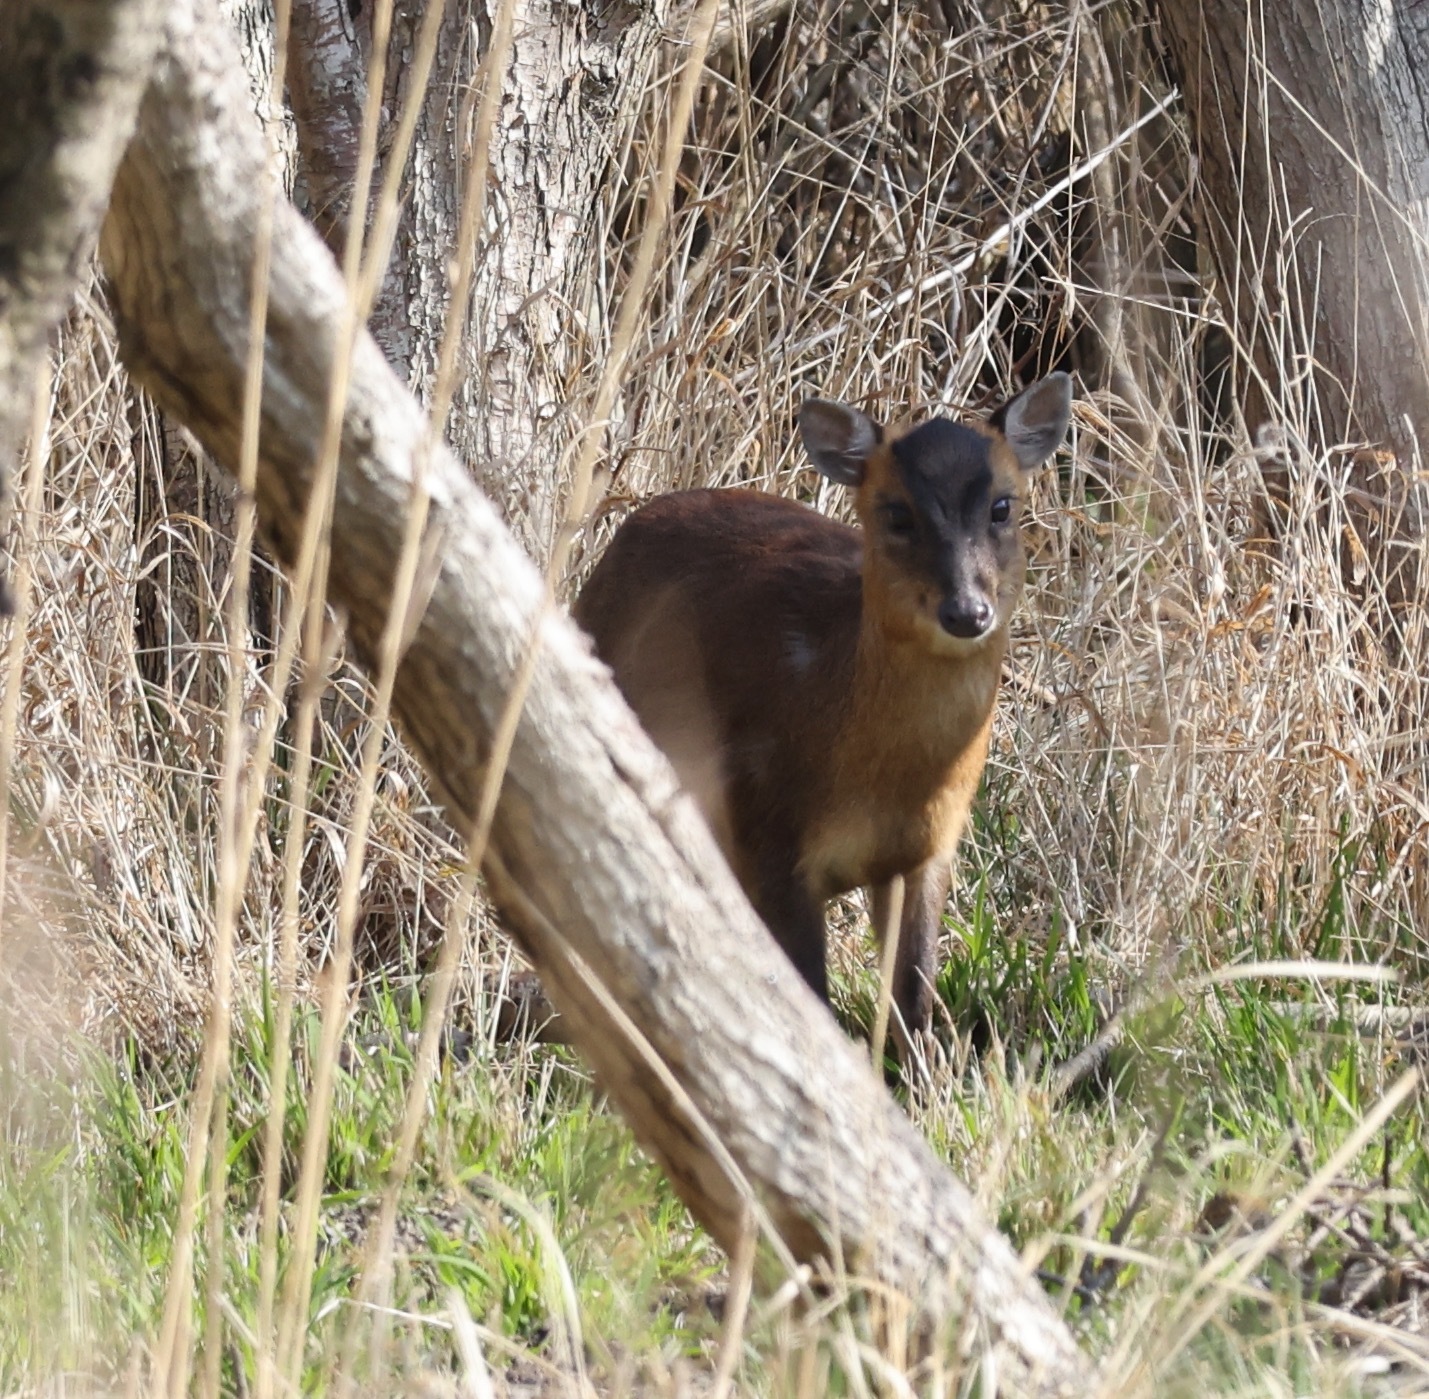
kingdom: Animalia
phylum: Chordata
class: Mammalia
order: Artiodactyla
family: Cervidae
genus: Muntiacus
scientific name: Muntiacus reevesi
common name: Reeves' muntjac
